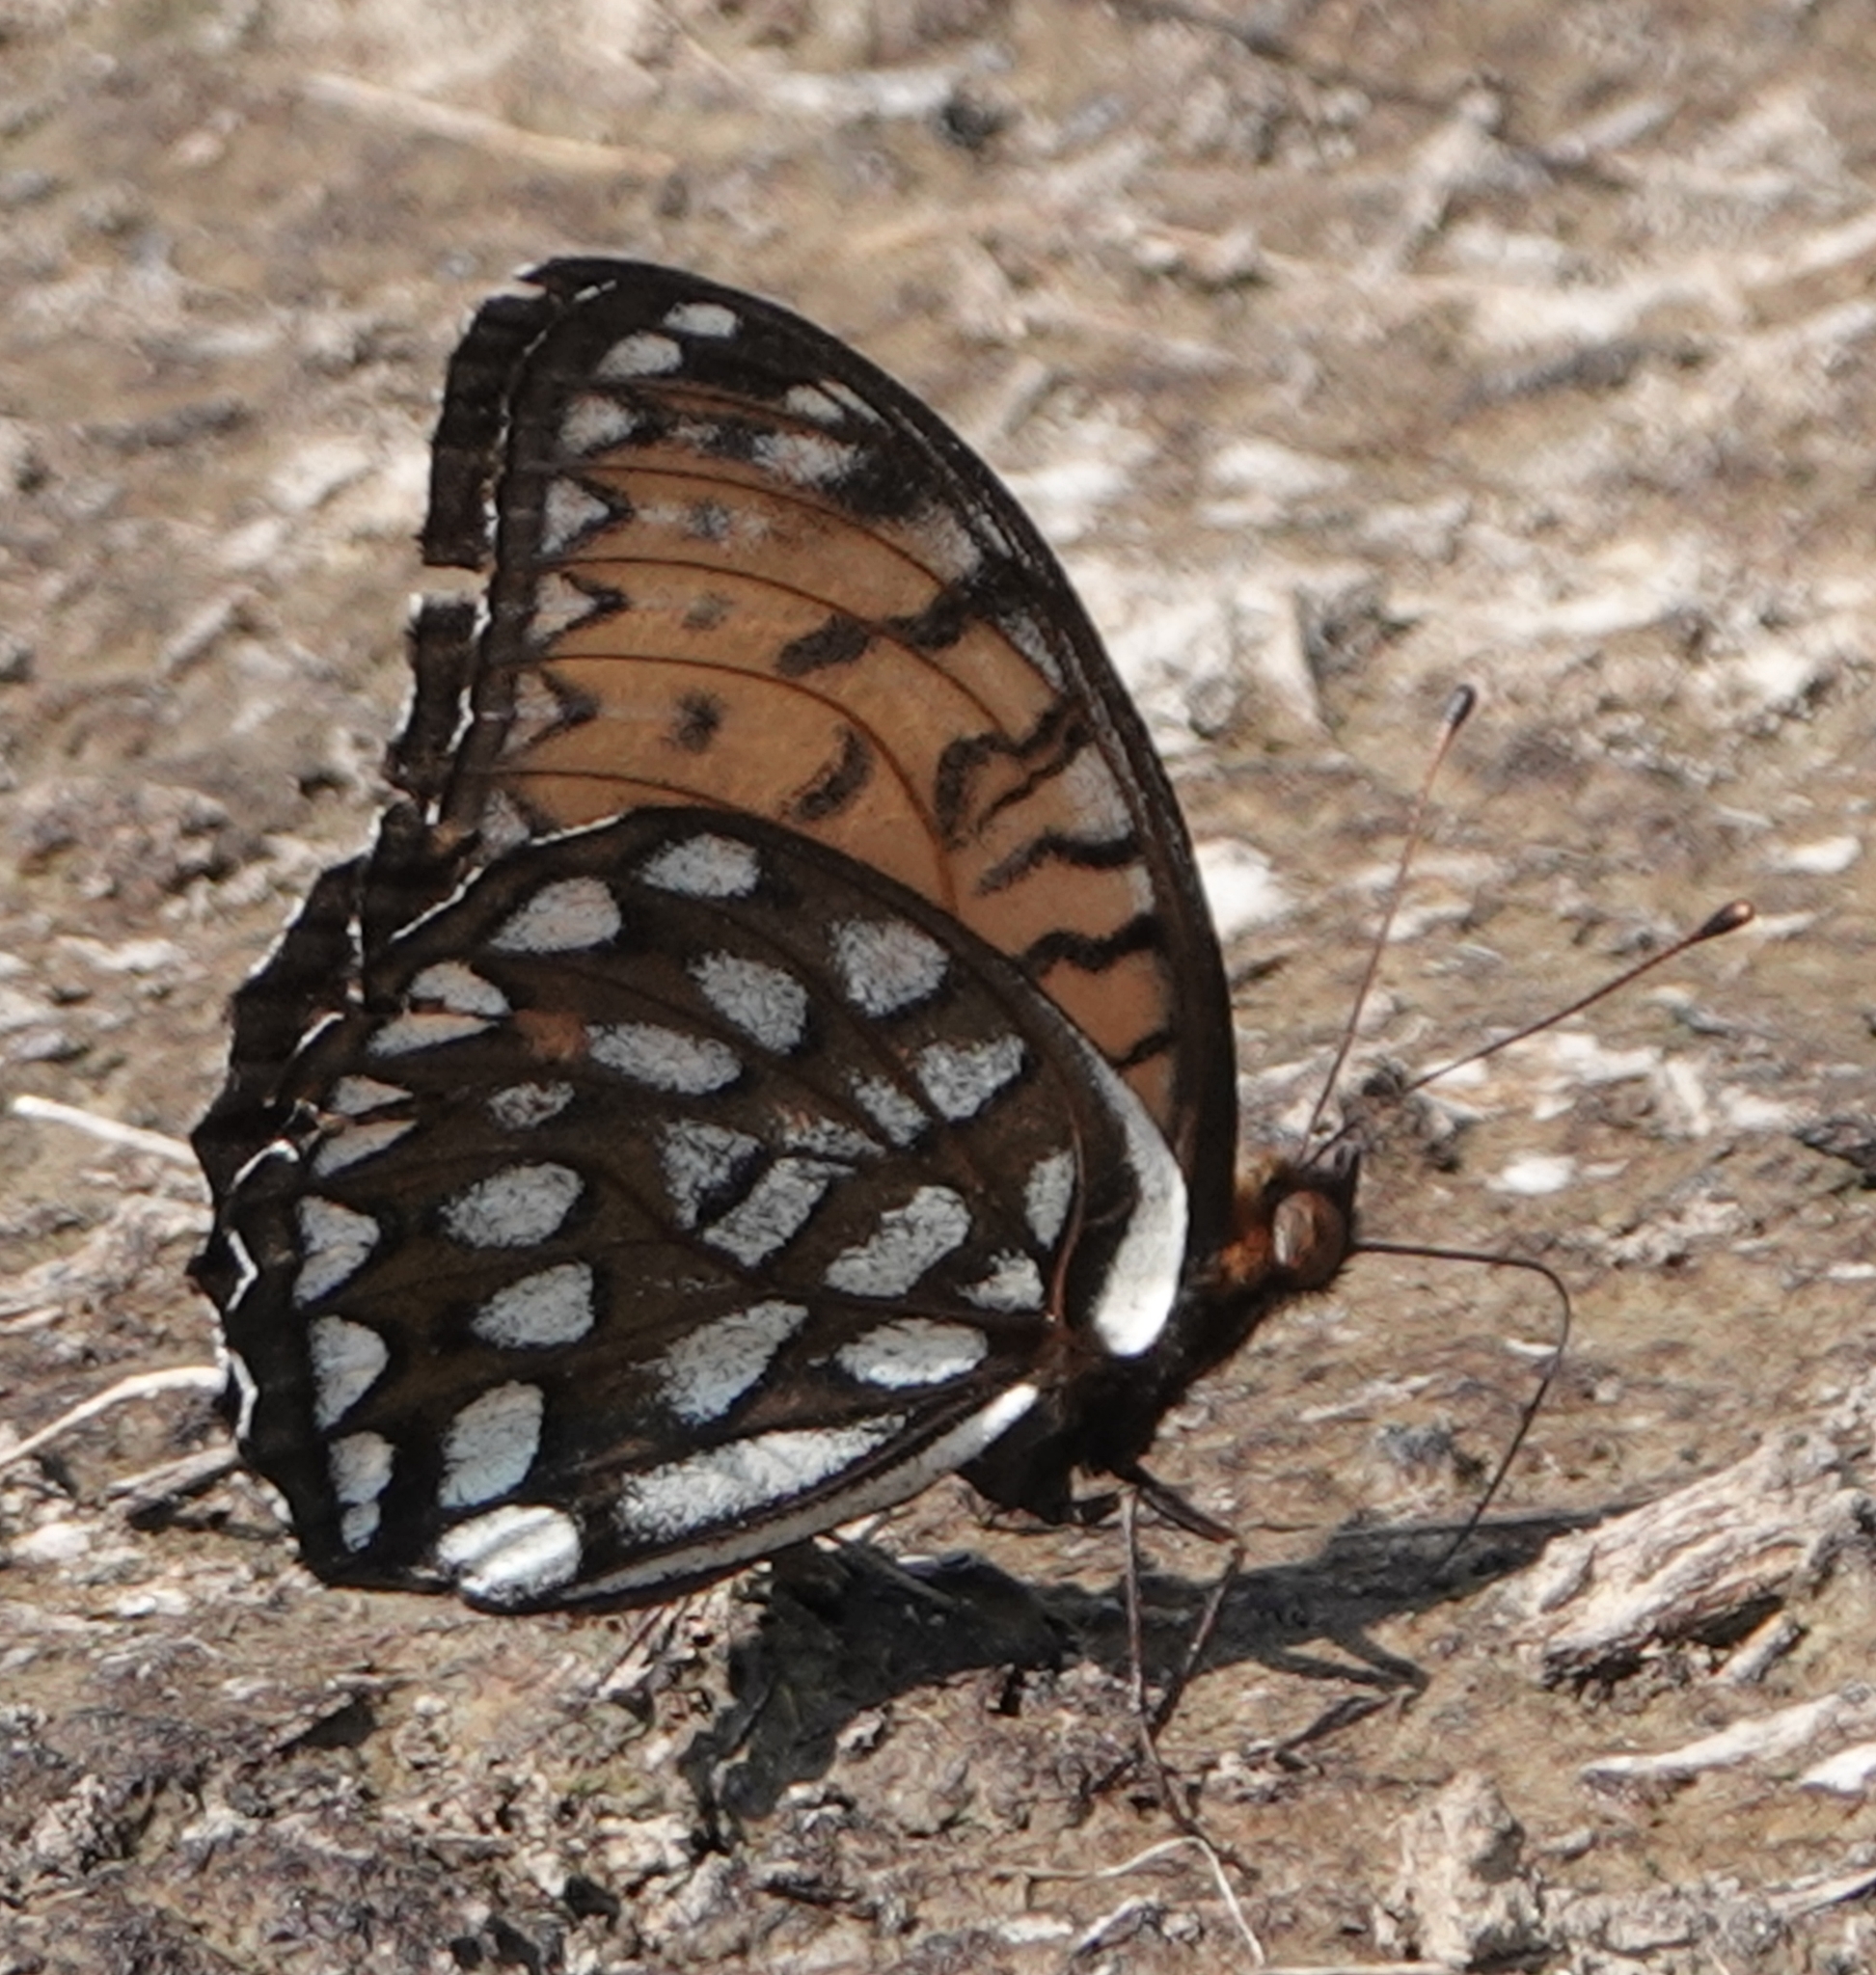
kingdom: Animalia
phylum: Arthropoda
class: Insecta
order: Lepidoptera
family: Nymphalidae
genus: Speyeria
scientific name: Speyeria idalia
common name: Regal fritillary
